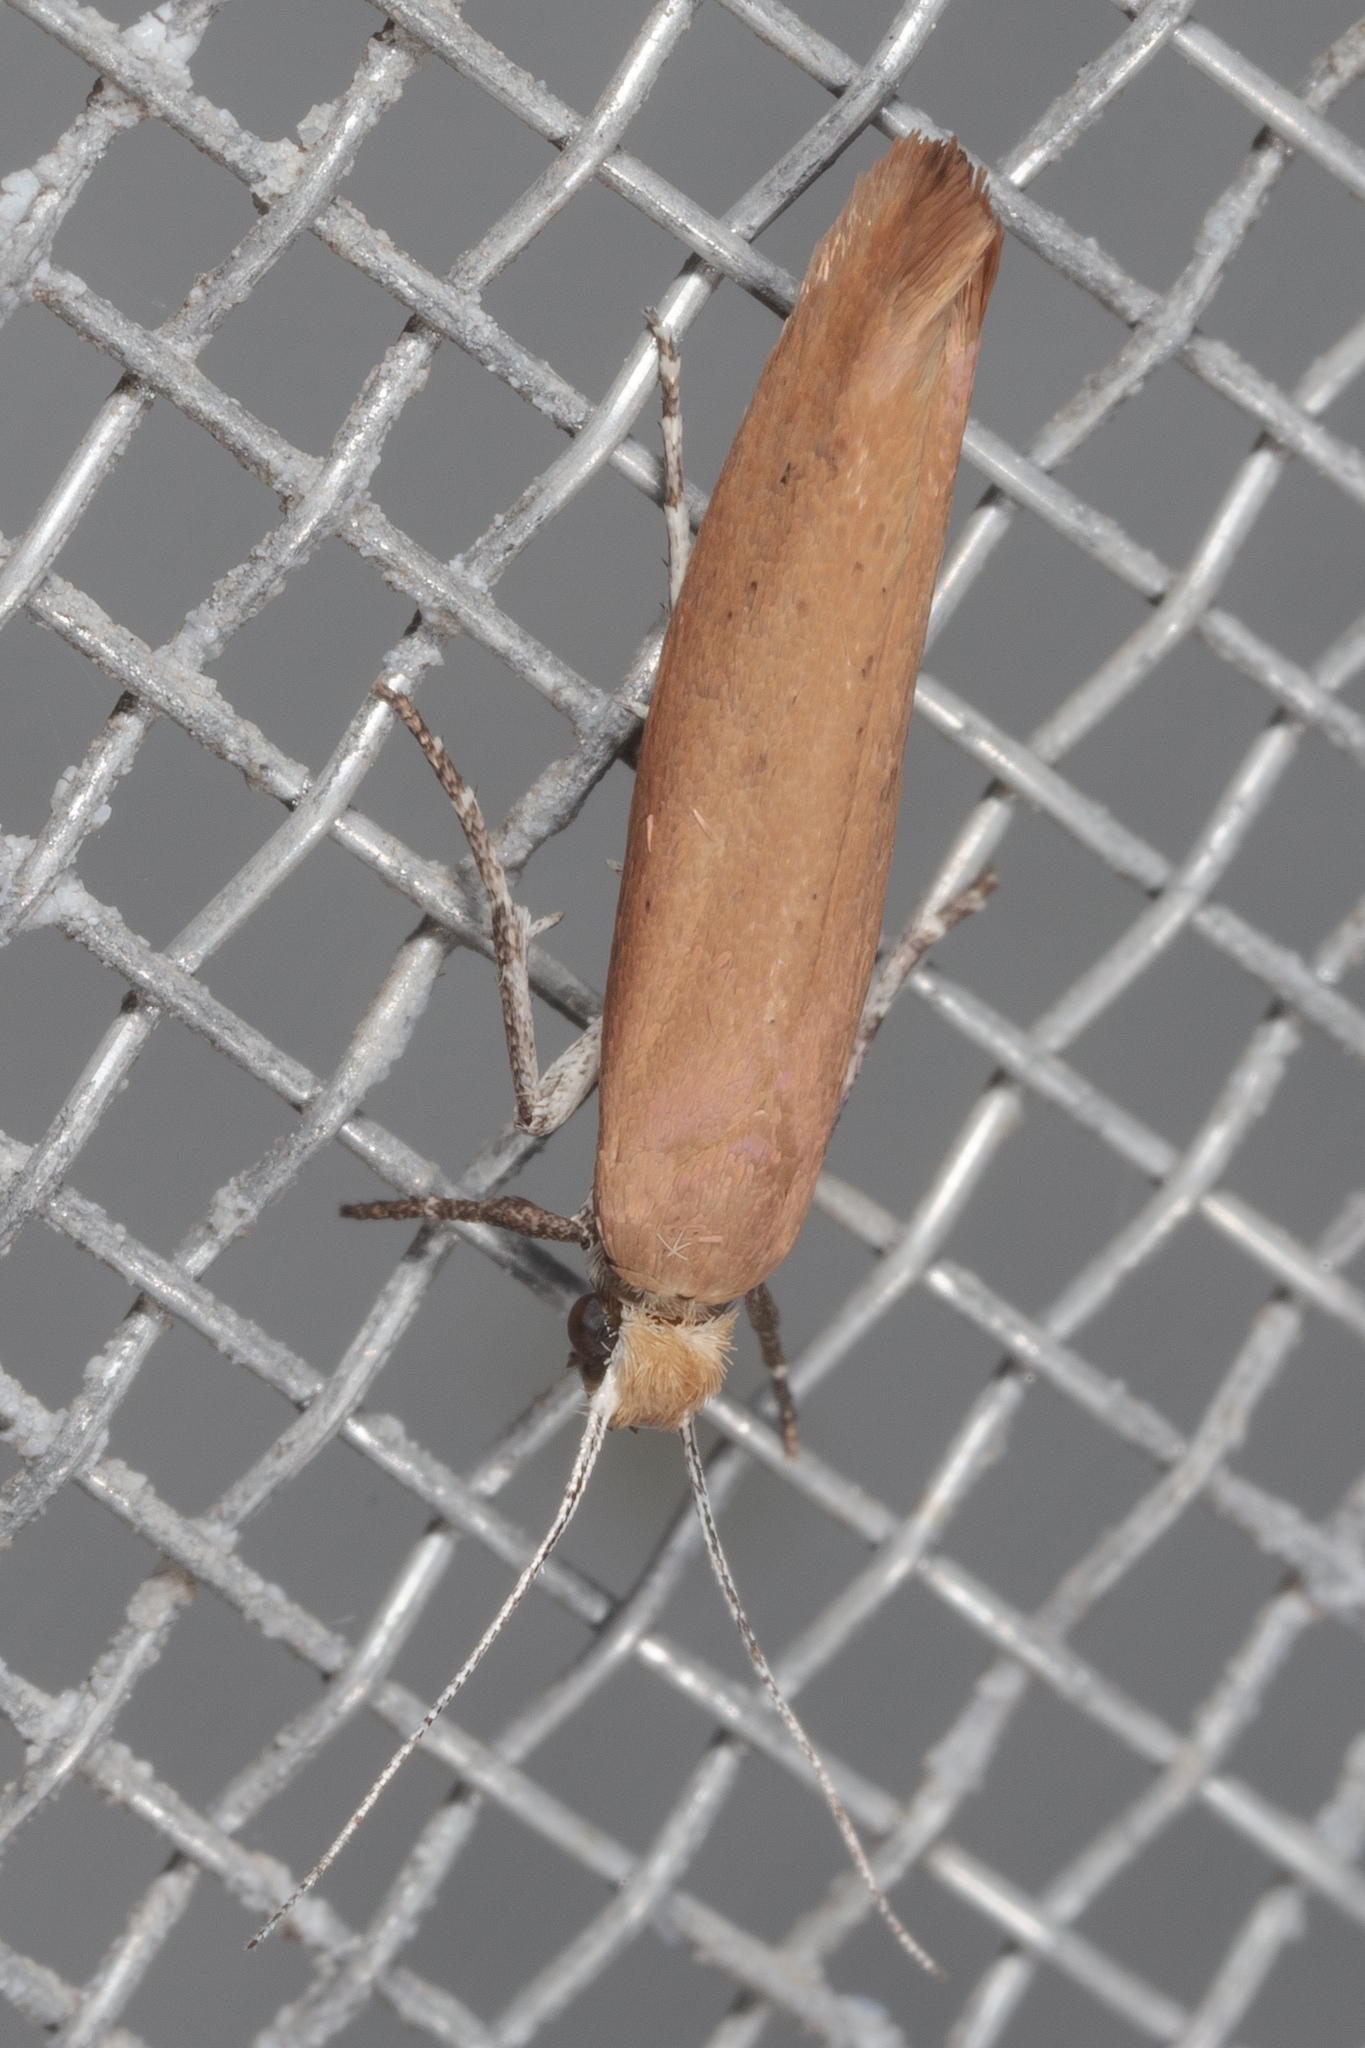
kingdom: Animalia
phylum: Arthropoda
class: Insecta
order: Lepidoptera
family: Ypsolophidae
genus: Ypsolopha
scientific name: Ypsolopha
